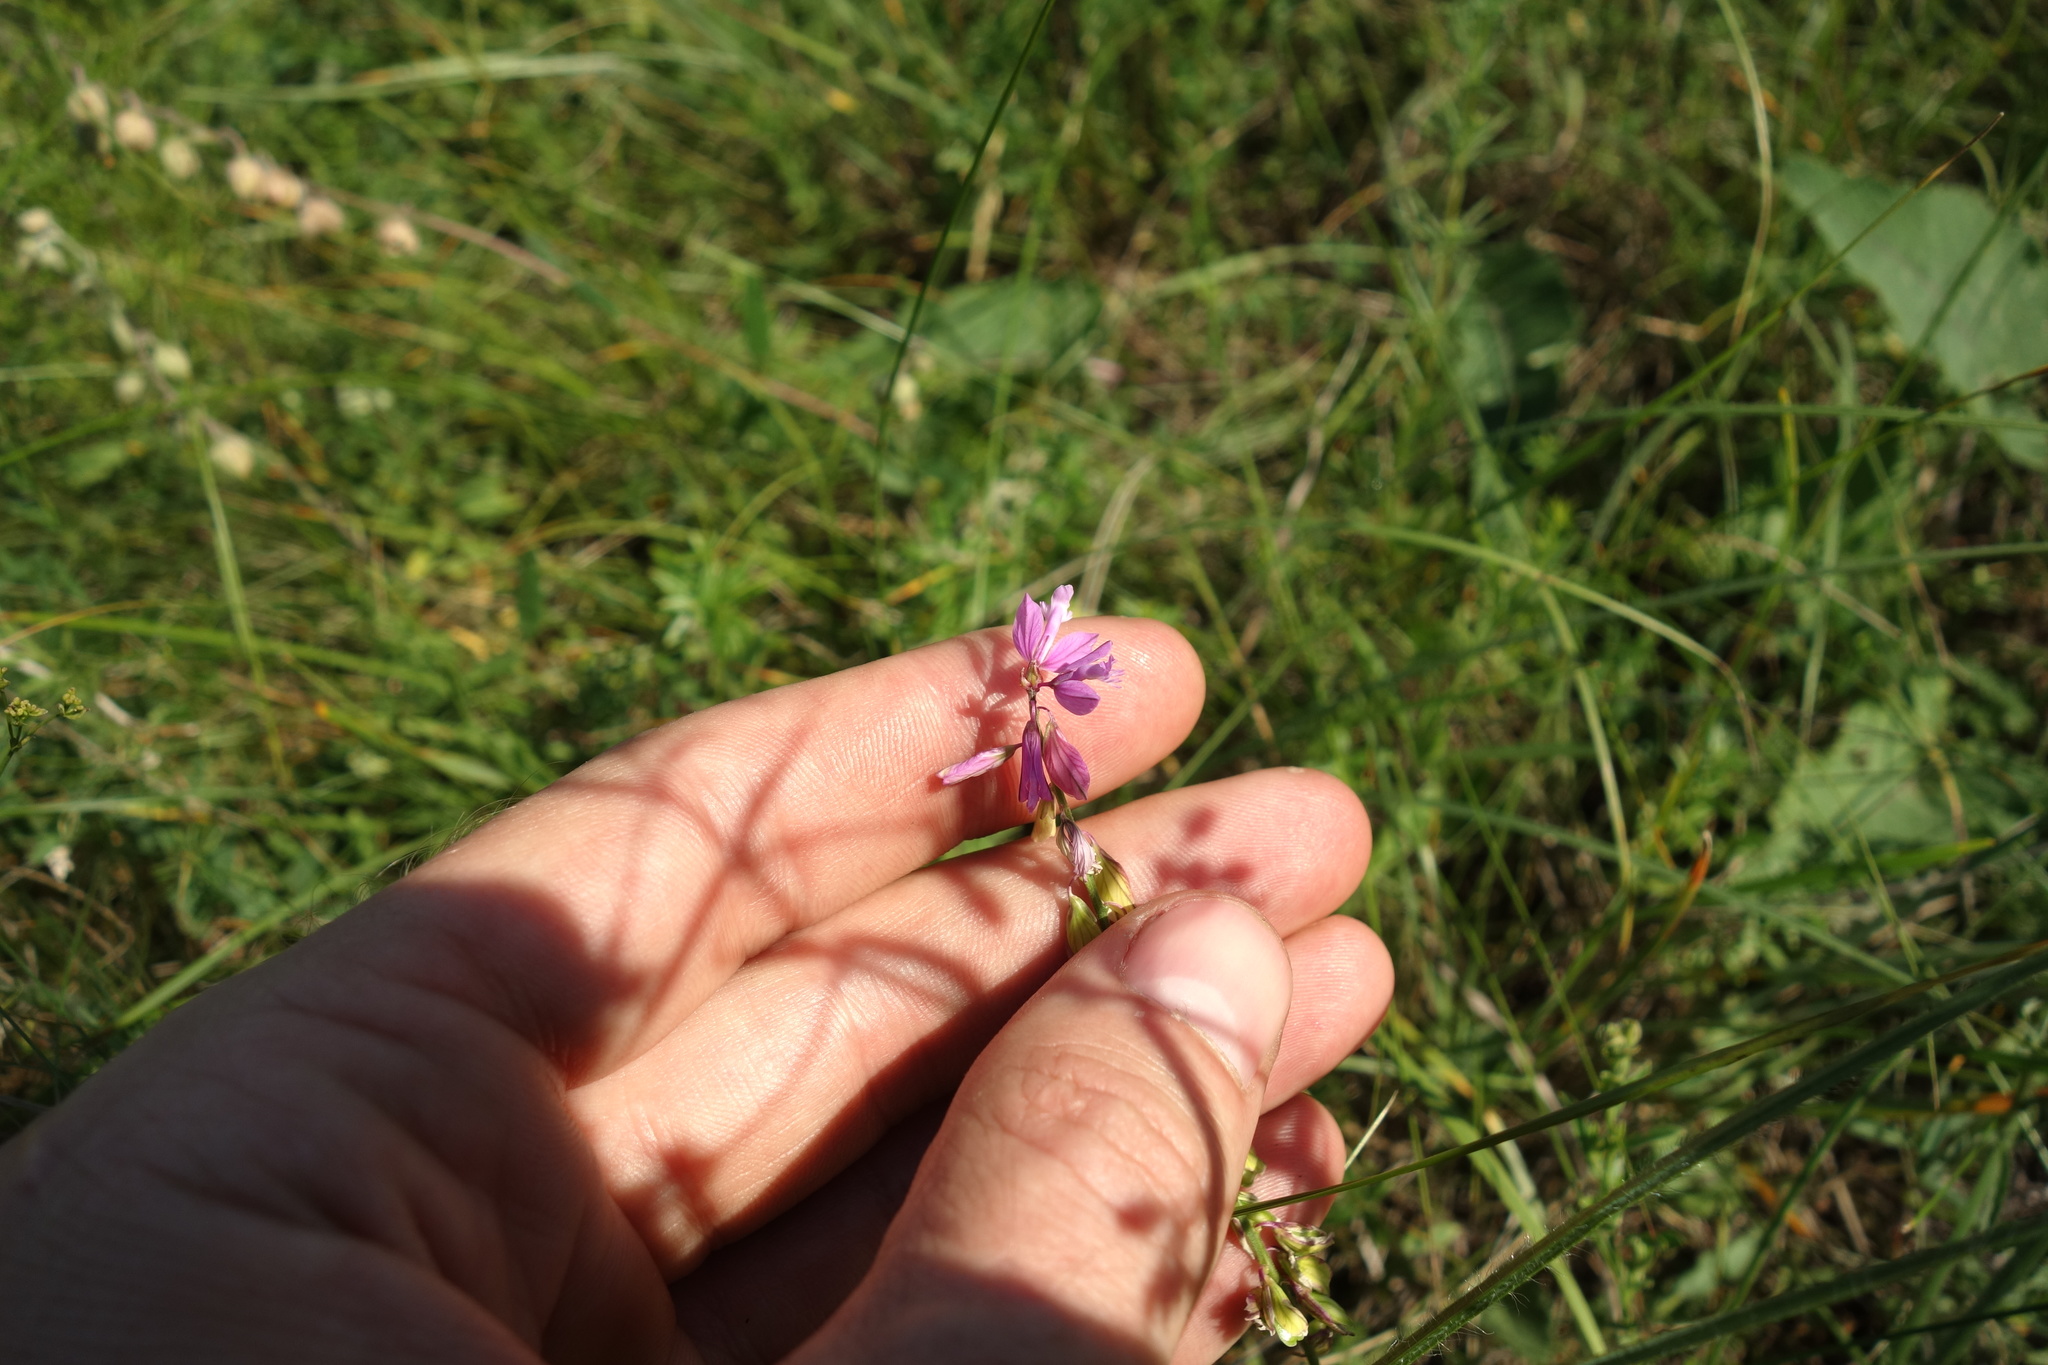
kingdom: Plantae
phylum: Tracheophyta
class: Magnoliopsida
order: Fabales
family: Polygalaceae
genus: Polygala
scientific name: Polygala nicaeensis
